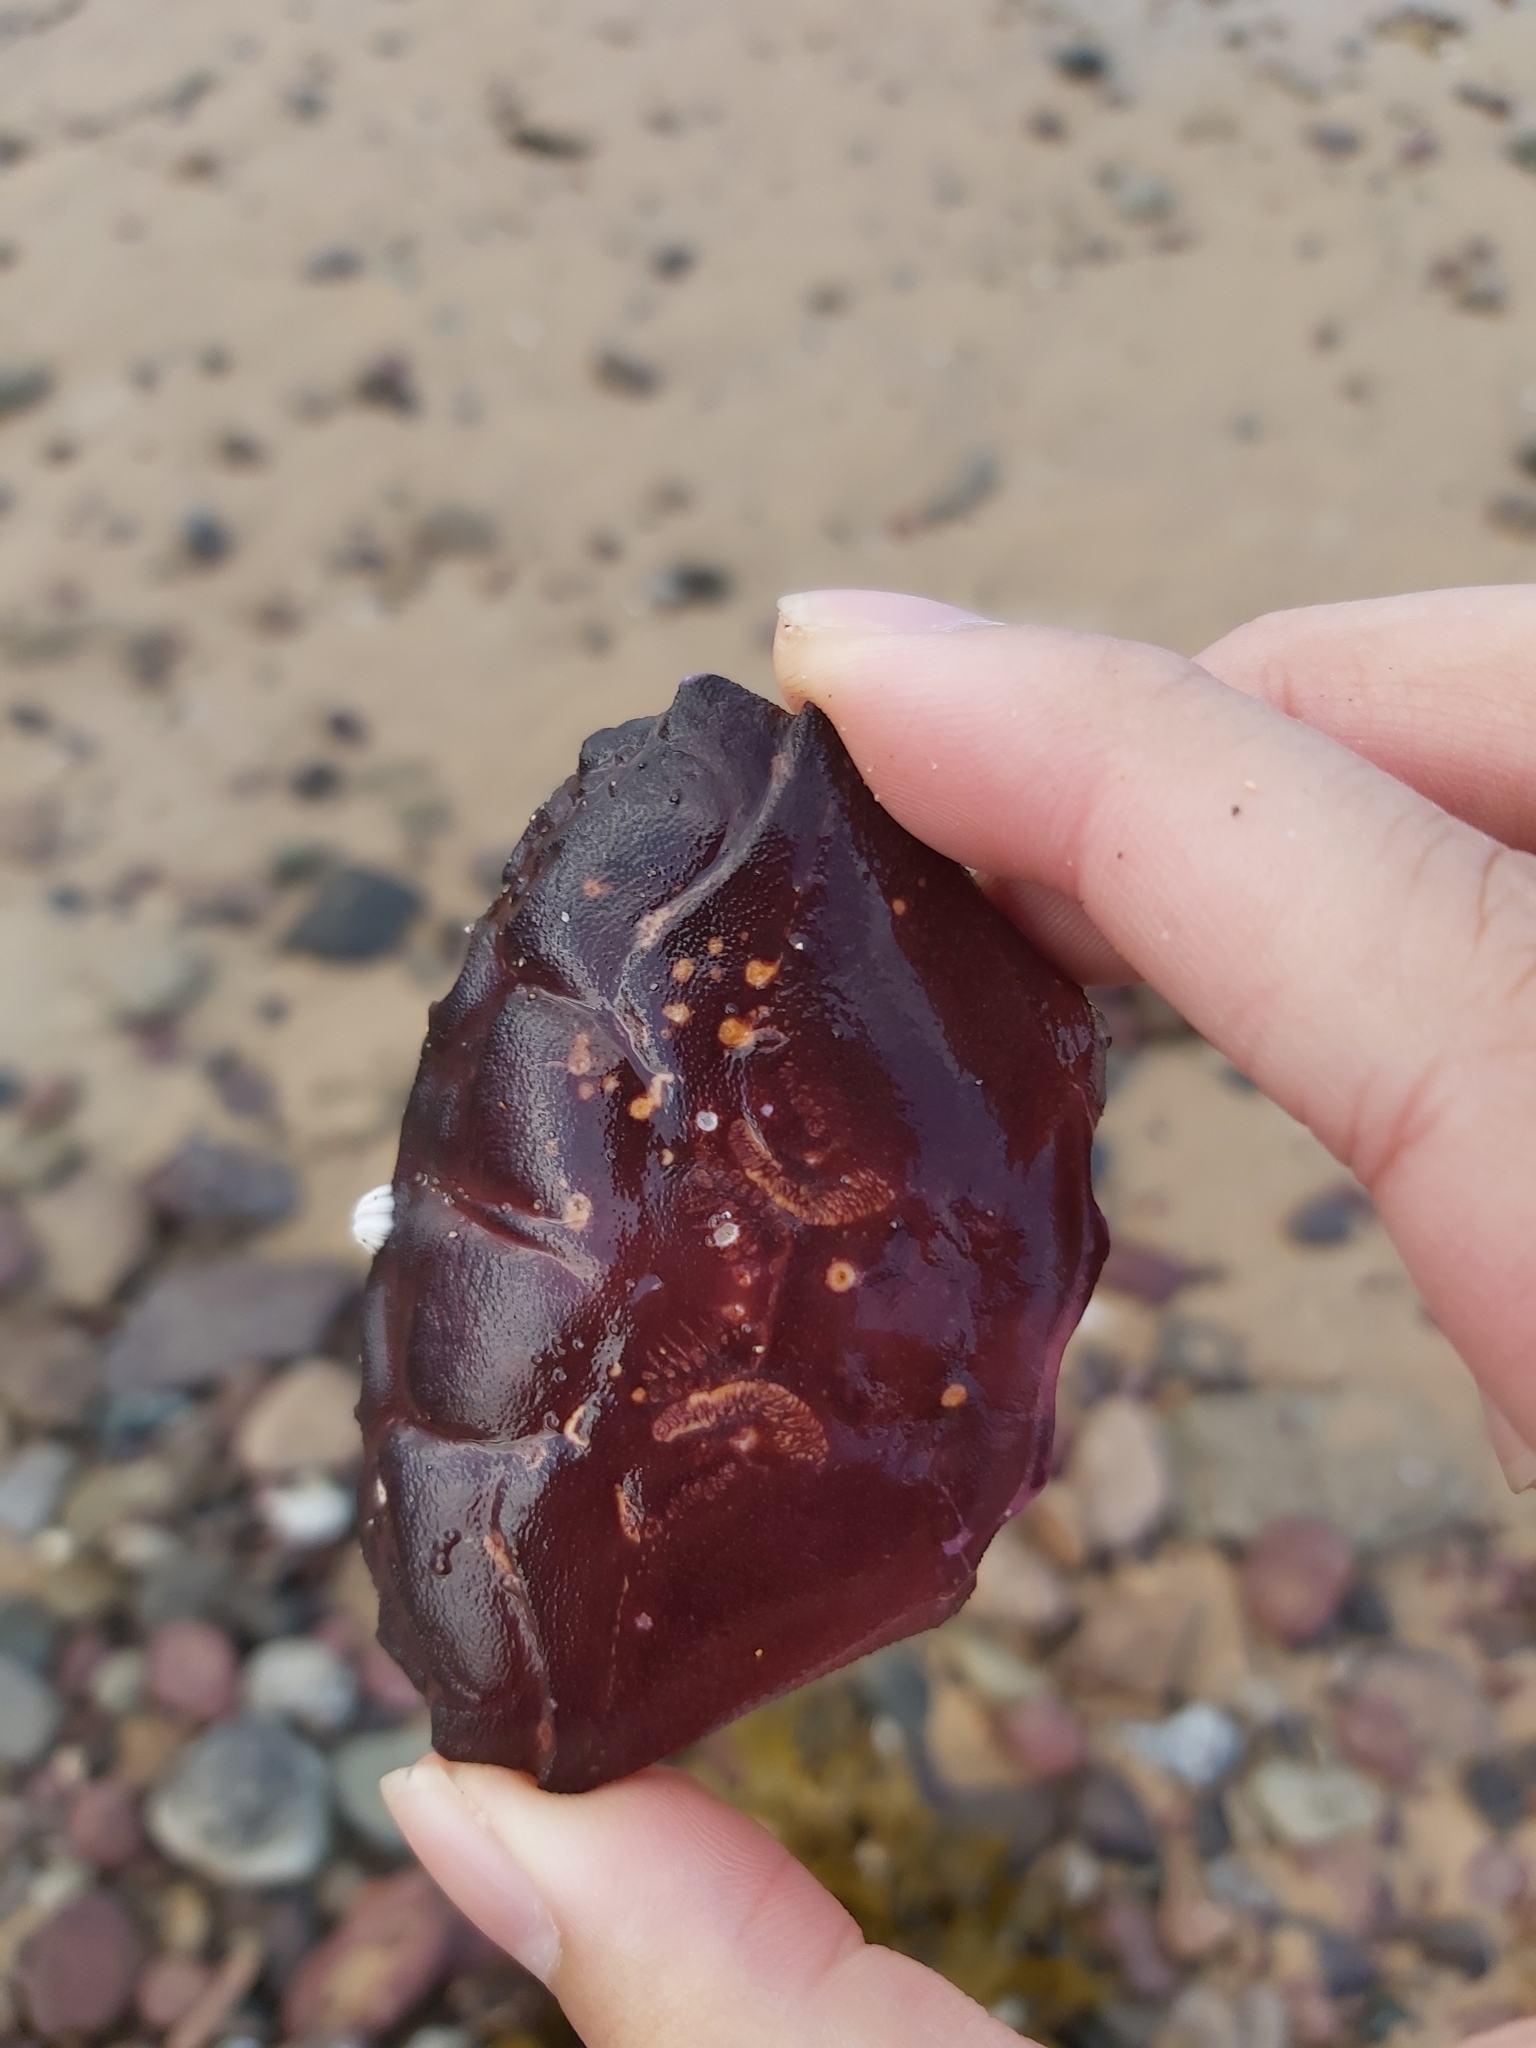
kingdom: Animalia
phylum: Arthropoda
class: Malacostraca
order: Decapoda
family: Oziidae
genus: Ozius
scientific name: Ozius truncatus
